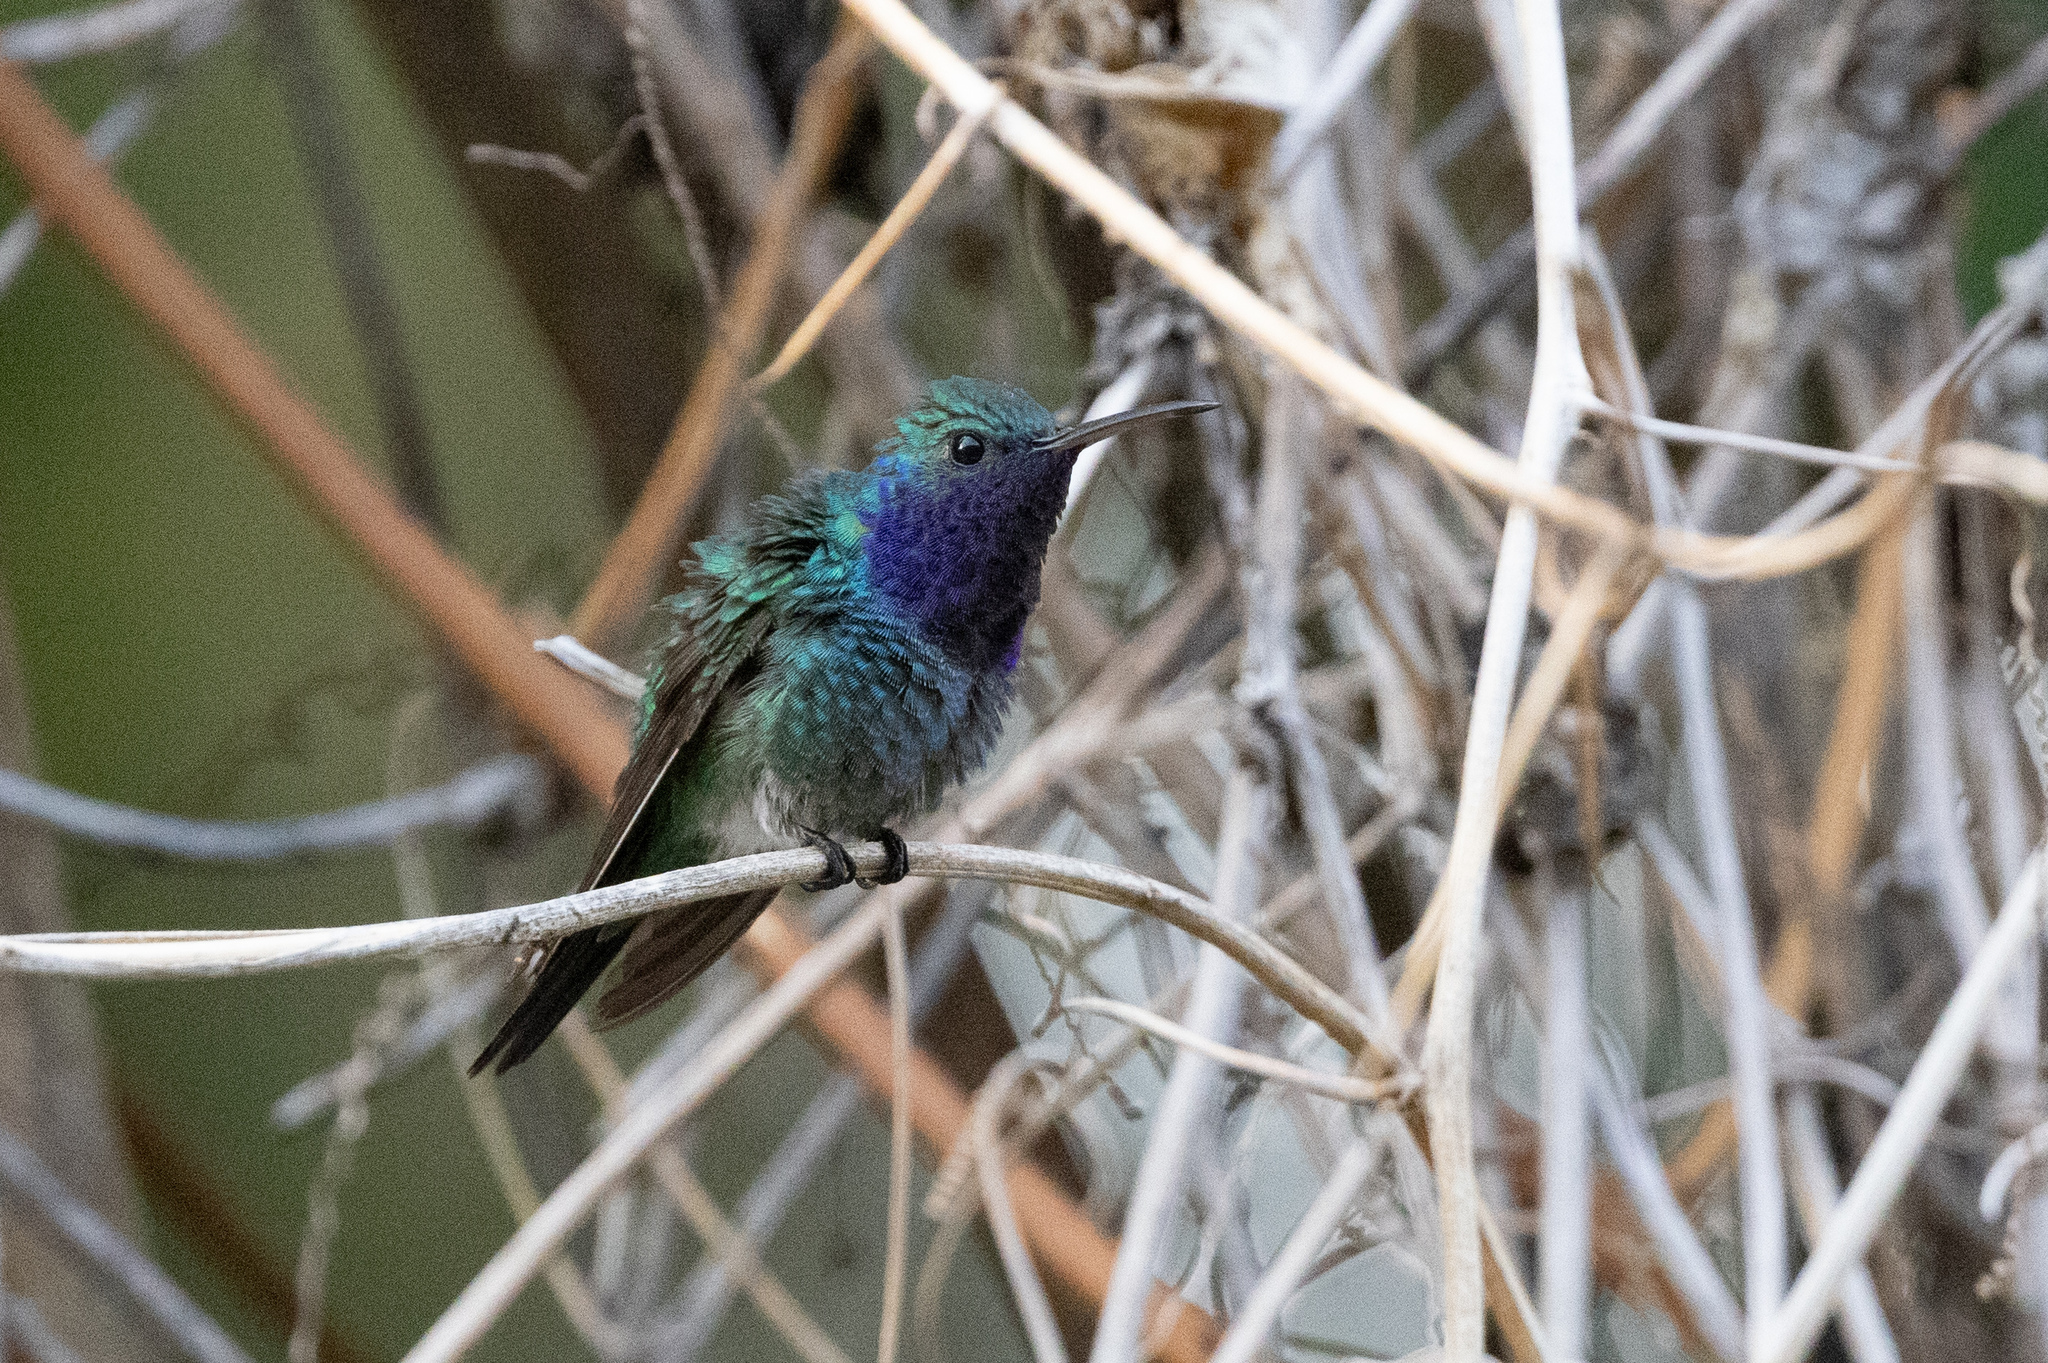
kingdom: Animalia
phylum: Chordata
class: Aves
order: Apodiformes
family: Trochilidae
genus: Chrysuronia
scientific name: Chrysuronia coeruleogularis
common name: Sapphire-throated hummingbird
